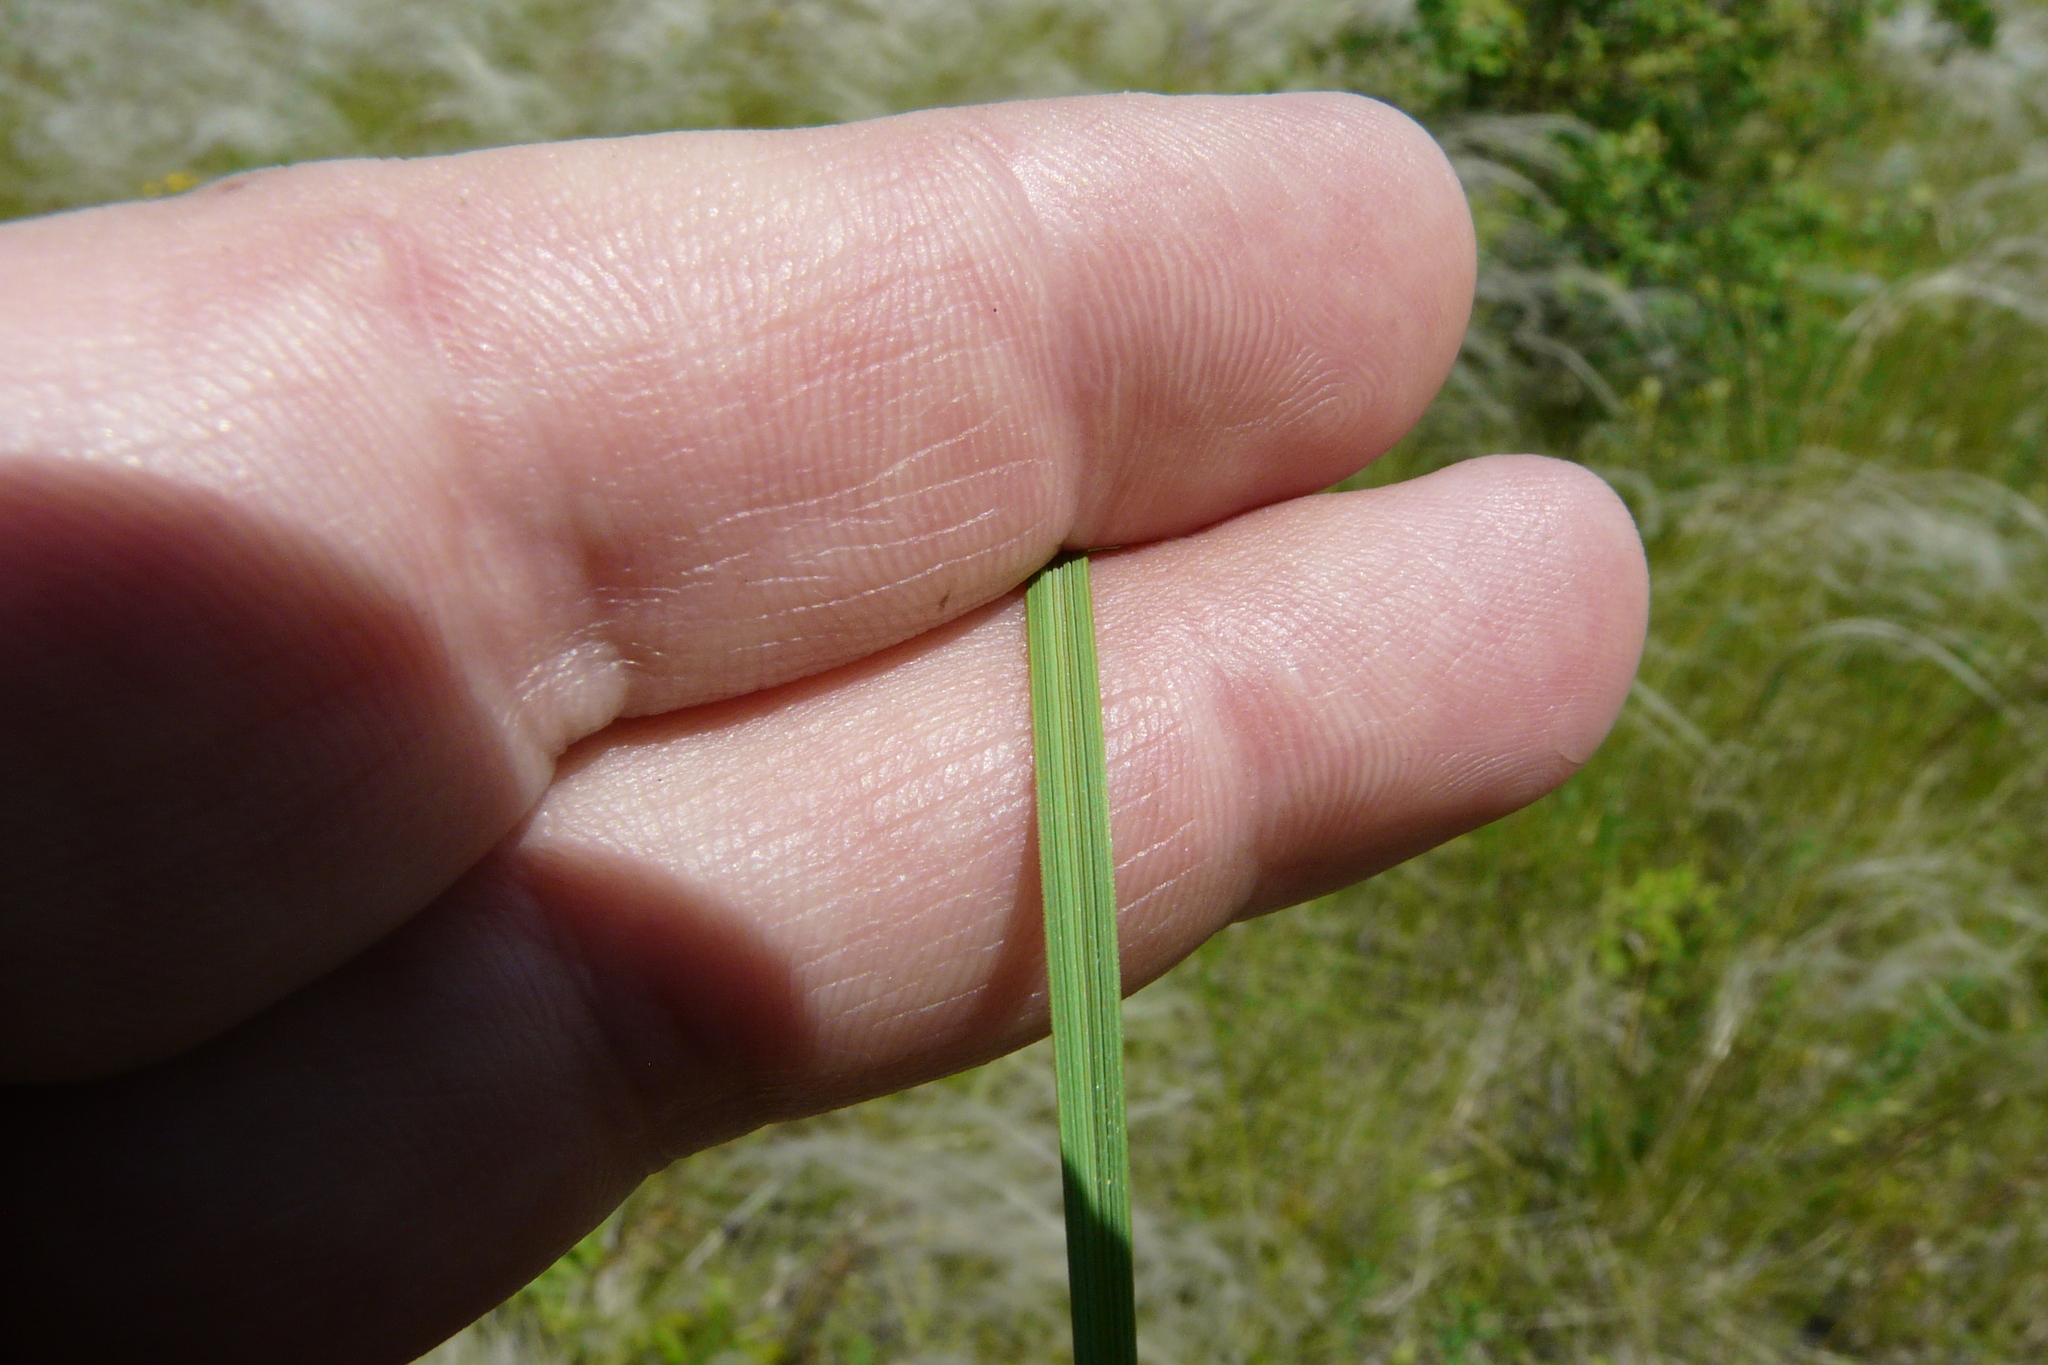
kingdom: Plantae
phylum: Tracheophyta
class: Liliopsida
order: Poales
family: Poaceae
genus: Stipa
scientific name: Stipa pennata
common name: European feather grass
